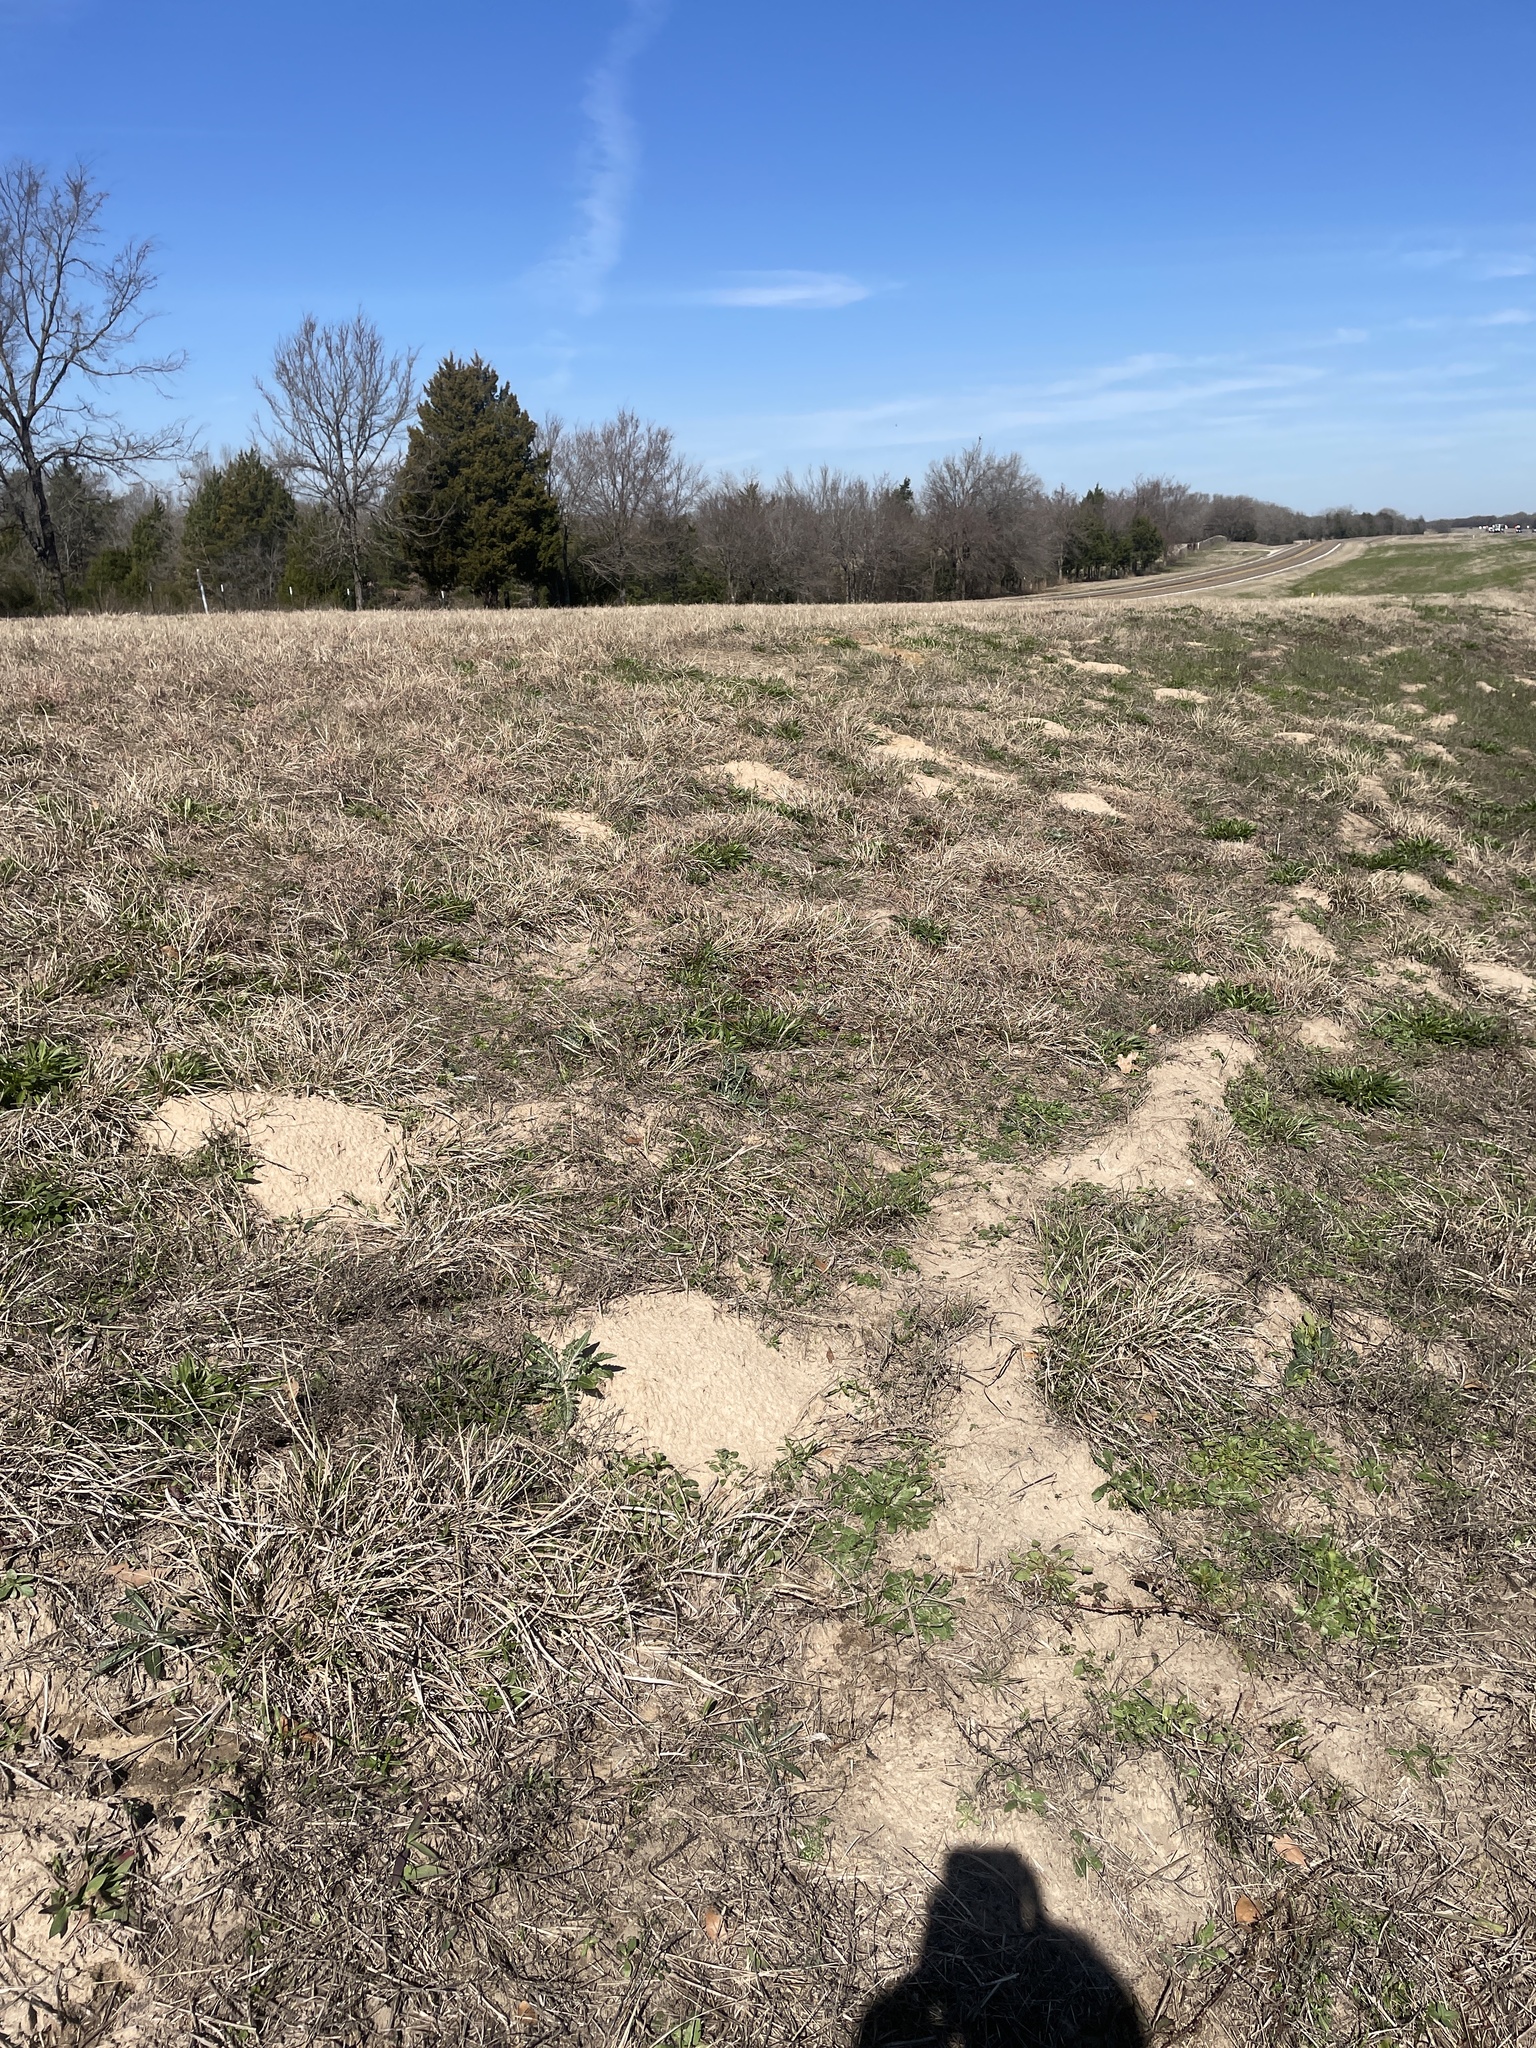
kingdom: Animalia
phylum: Chordata
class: Mammalia
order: Rodentia
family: Geomyidae
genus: Geomys
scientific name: Geomys breviceps
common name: Baird's pocket gopher
